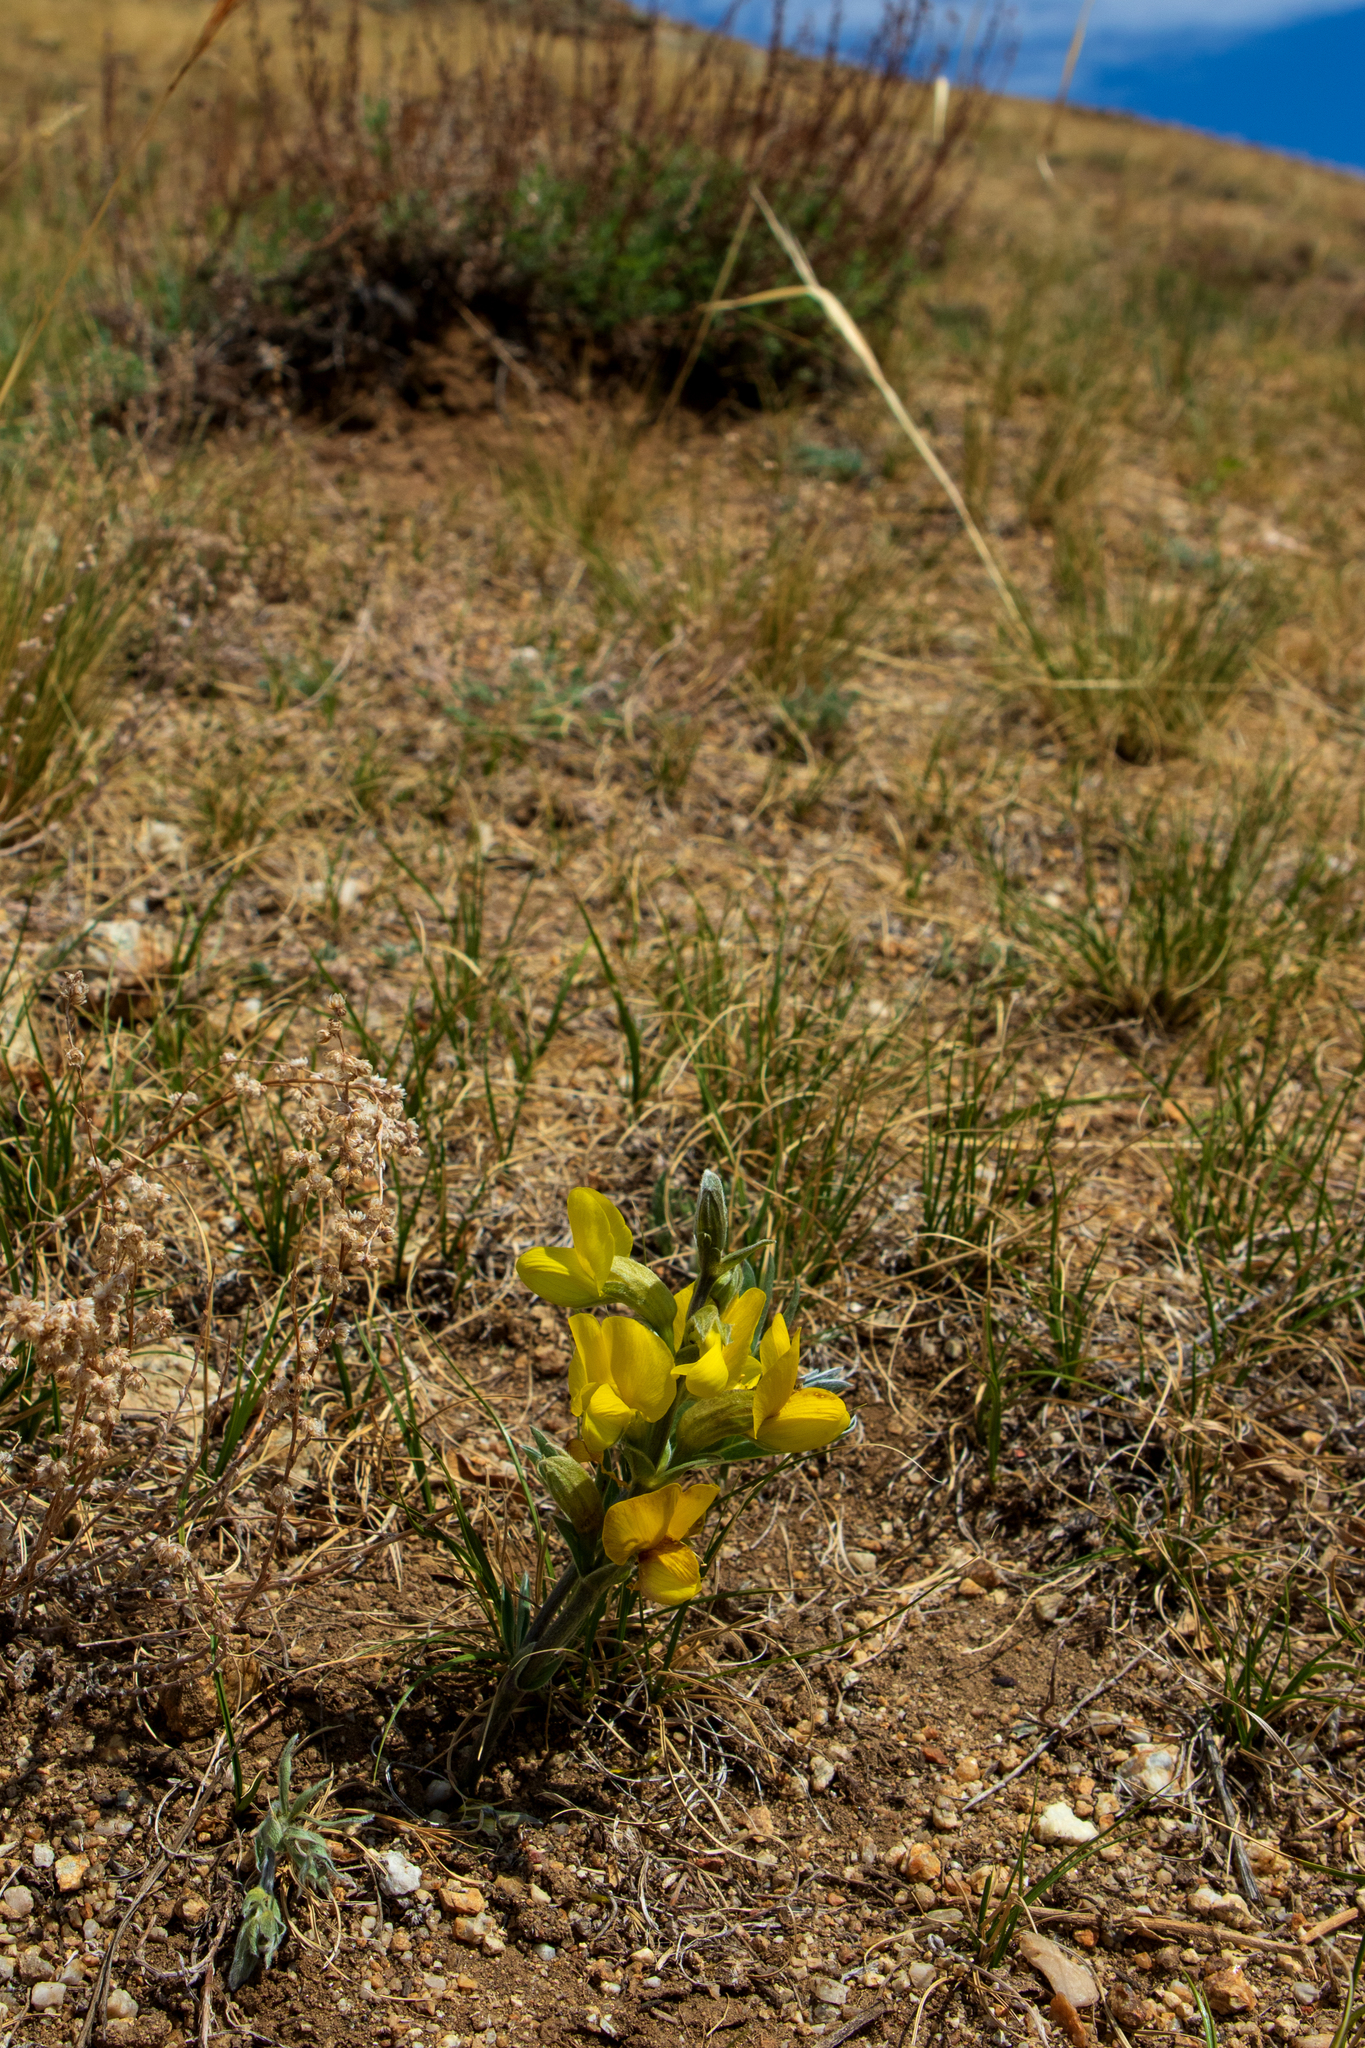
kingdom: Plantae
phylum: Tracheophyta
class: Magnoliopsida
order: Fabales
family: Fabaceae
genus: Thermopsis
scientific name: Thermopsis lanceolata
